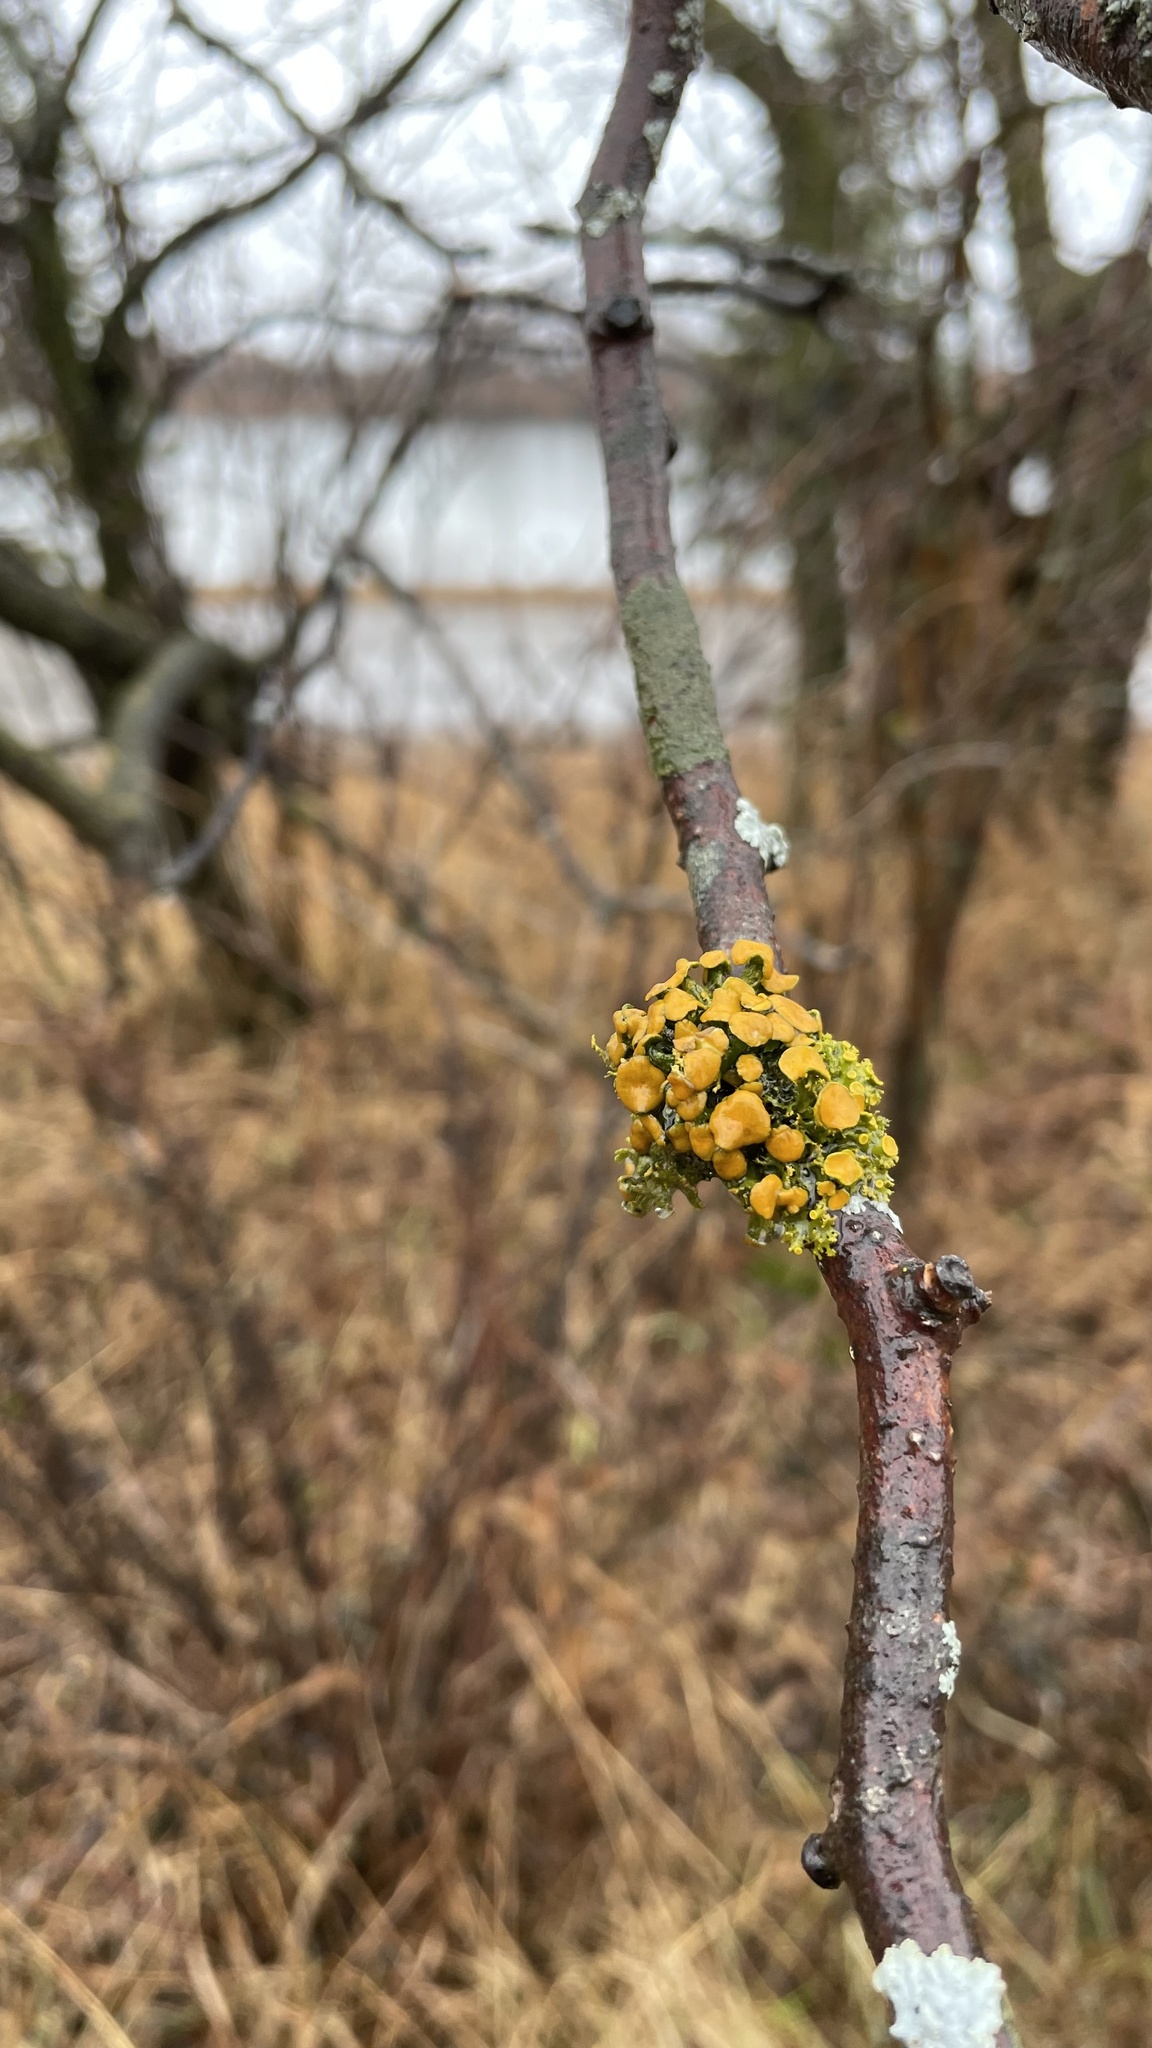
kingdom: Fungi
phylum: Ascomycota
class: Lecanoromycetes
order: Teloschistales
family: Teloschistaceae
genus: Niorma
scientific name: Niorma chrysophthalma
